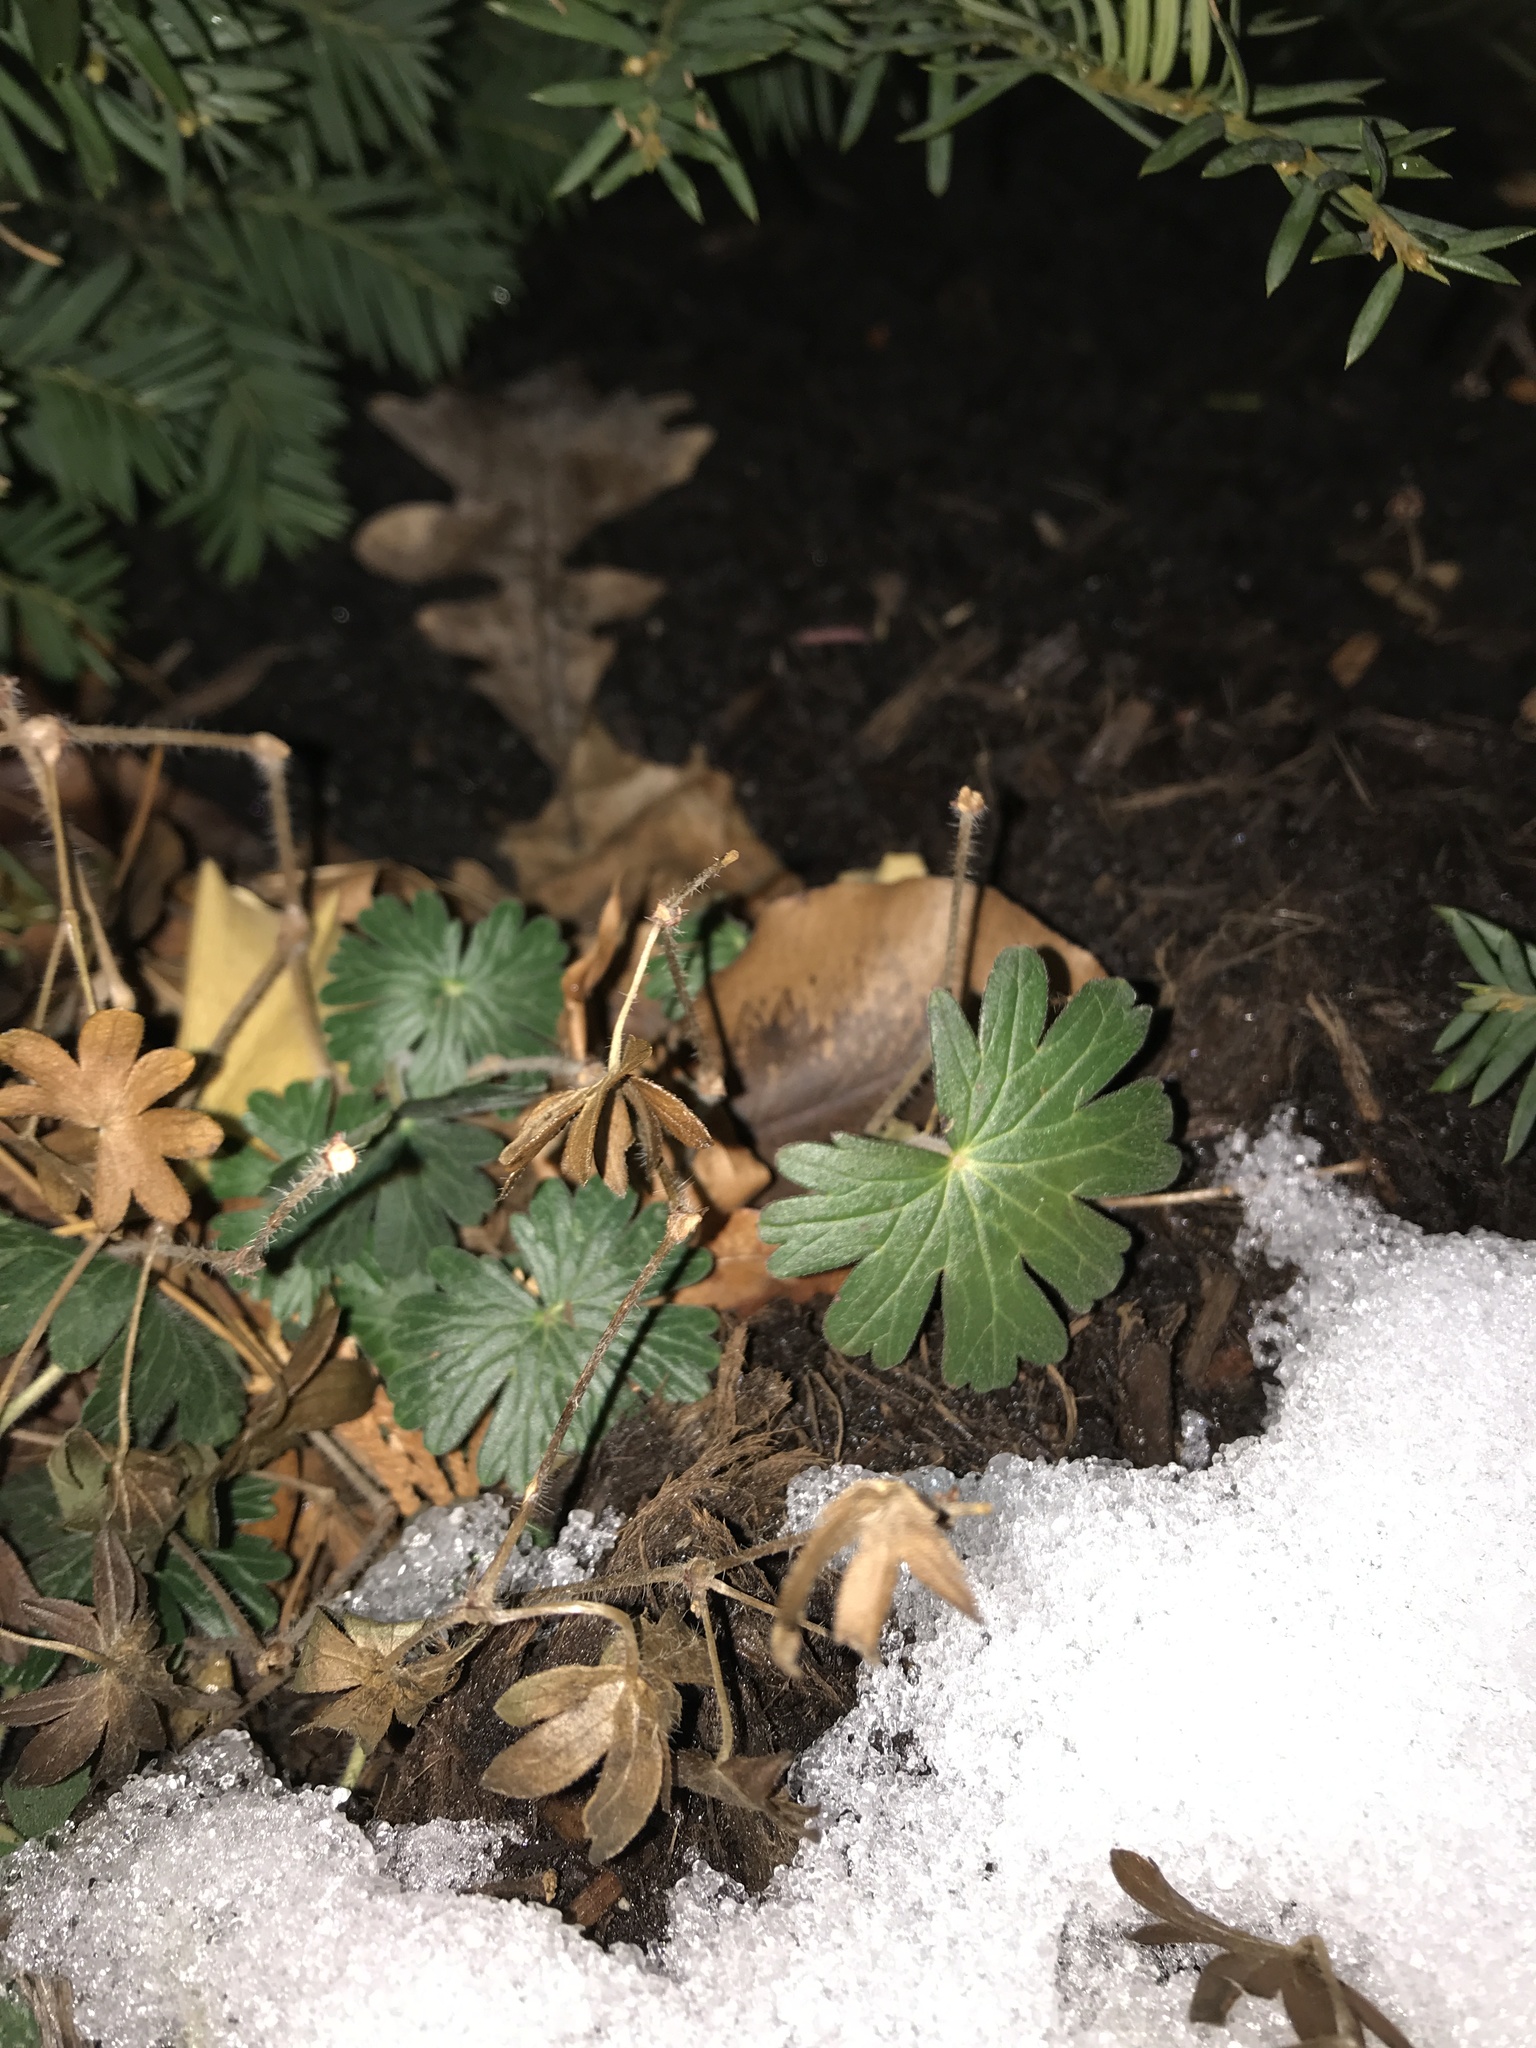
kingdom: Plantae
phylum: Tracheophyta
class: Magnoliopsida
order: Ranunculales
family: Ranunculaceae
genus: Eranthis
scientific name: Eranthis hyemalis
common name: Winter aconite
